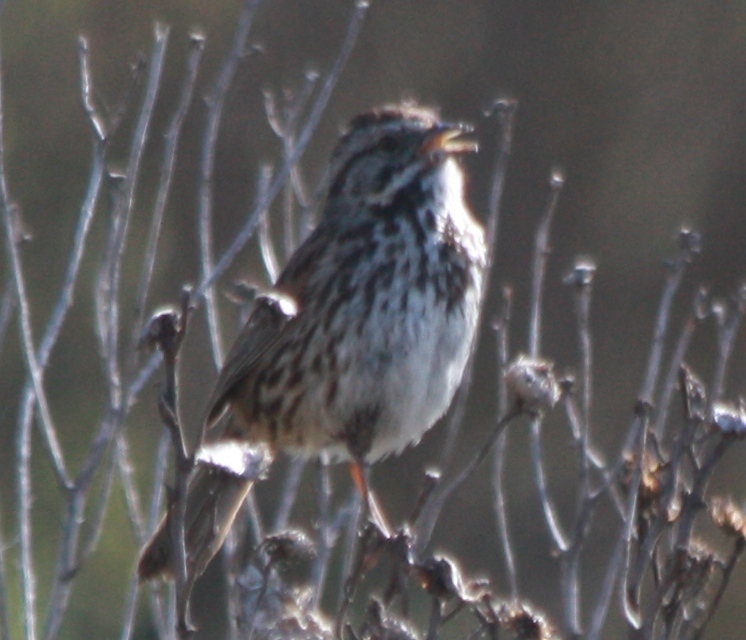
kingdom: Animalia
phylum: Chordata
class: Aves
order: Passeriformes
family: Passerellidae
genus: Melospiza
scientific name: Melospiza melodia
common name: Song sparrow
